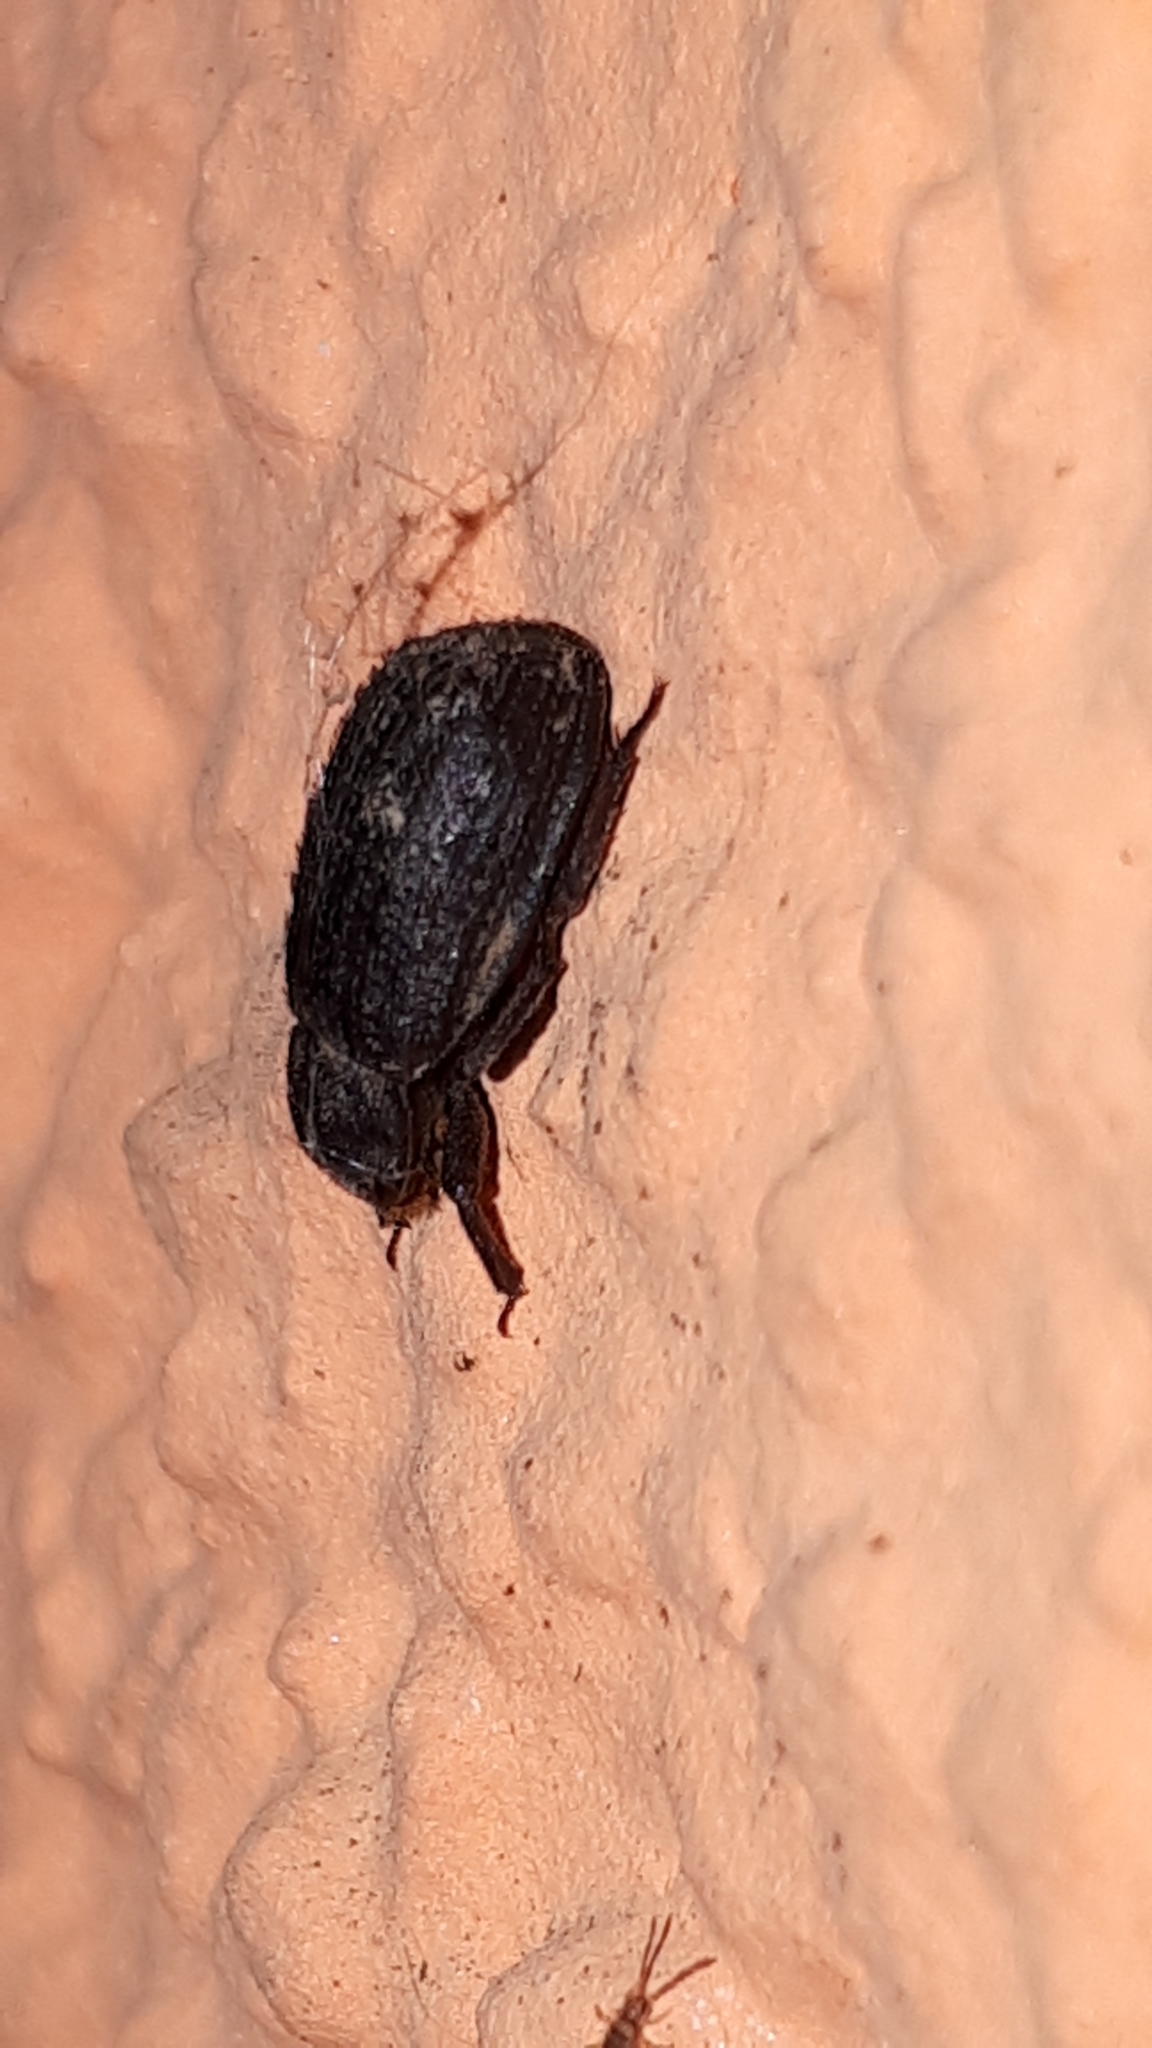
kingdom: Animalia
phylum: Arthropoda
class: Insecta
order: Coleoptera
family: Trogidae
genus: Trox
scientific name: Trox scaber
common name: Hide beetle
